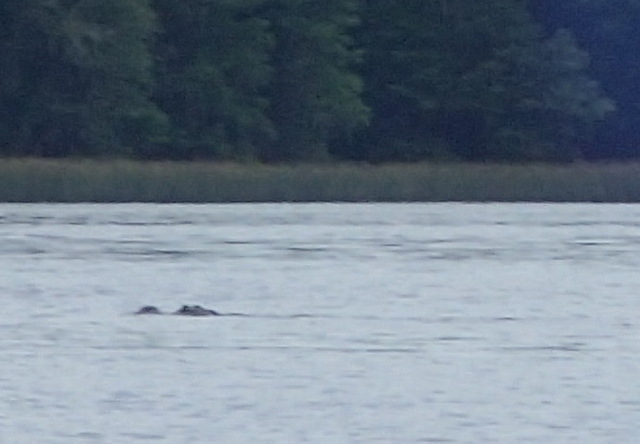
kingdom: Animalia
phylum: Chordata
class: Crocodylia
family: Alligatoridae
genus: Alligator
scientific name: Alligator mississippiensis
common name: American alligator
